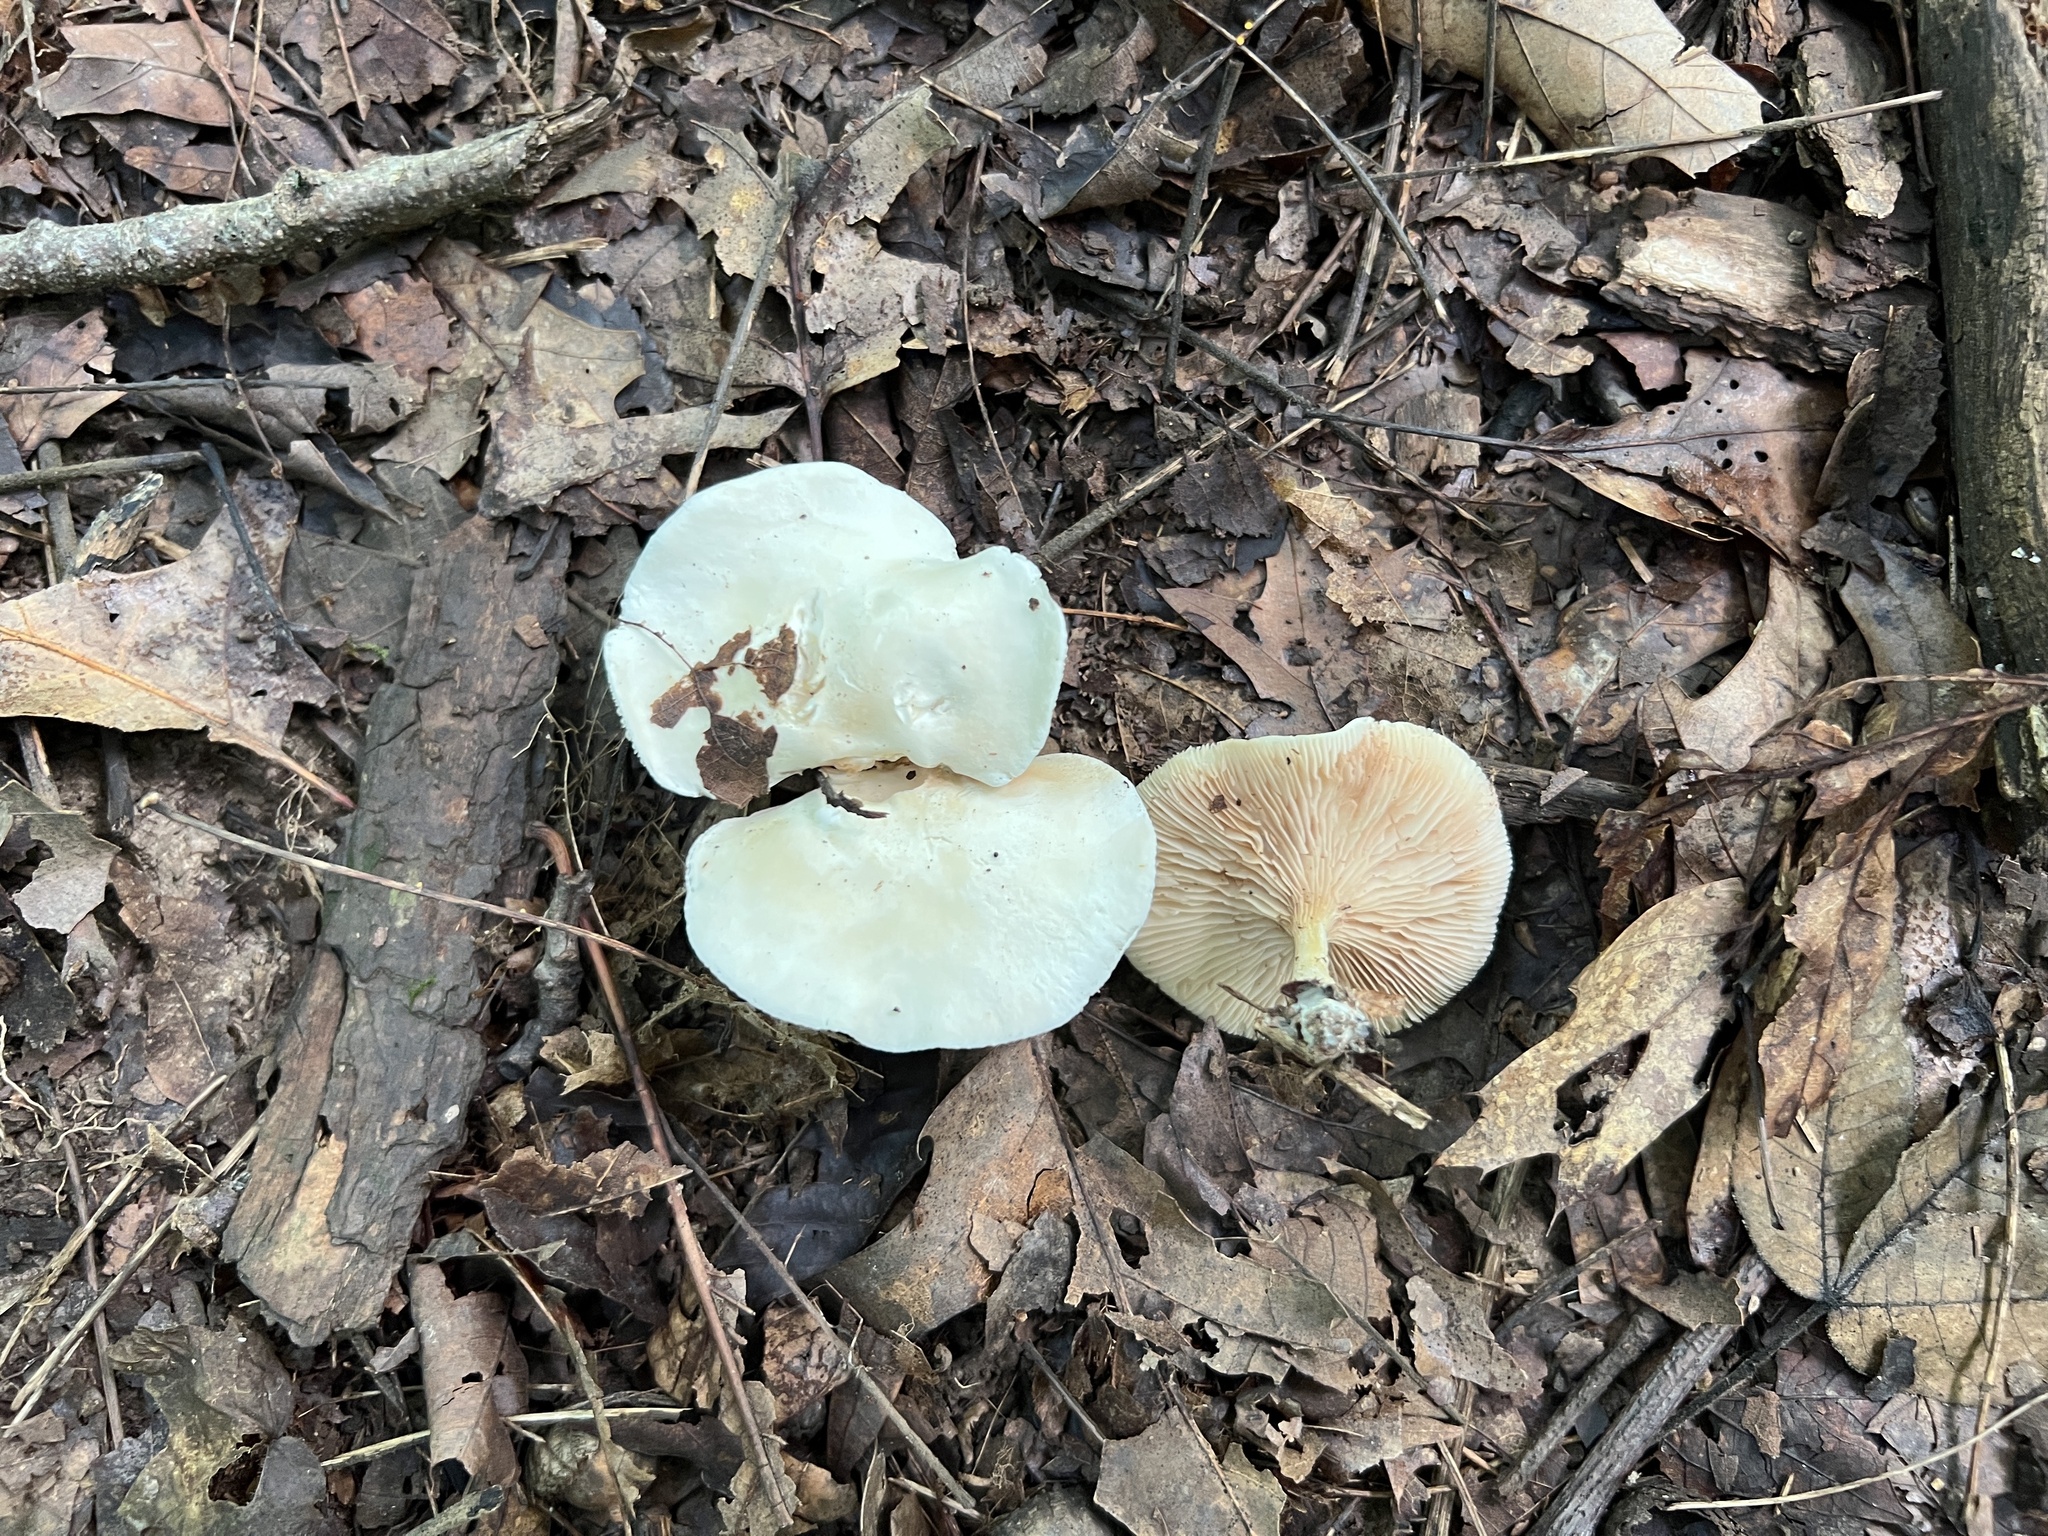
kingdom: Fungi
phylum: Basidiomycota
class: Agaricomycetes
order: Agaricales
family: Entolomataceae
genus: Clitopilus
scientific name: Clitopilus prunulus
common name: The miller
